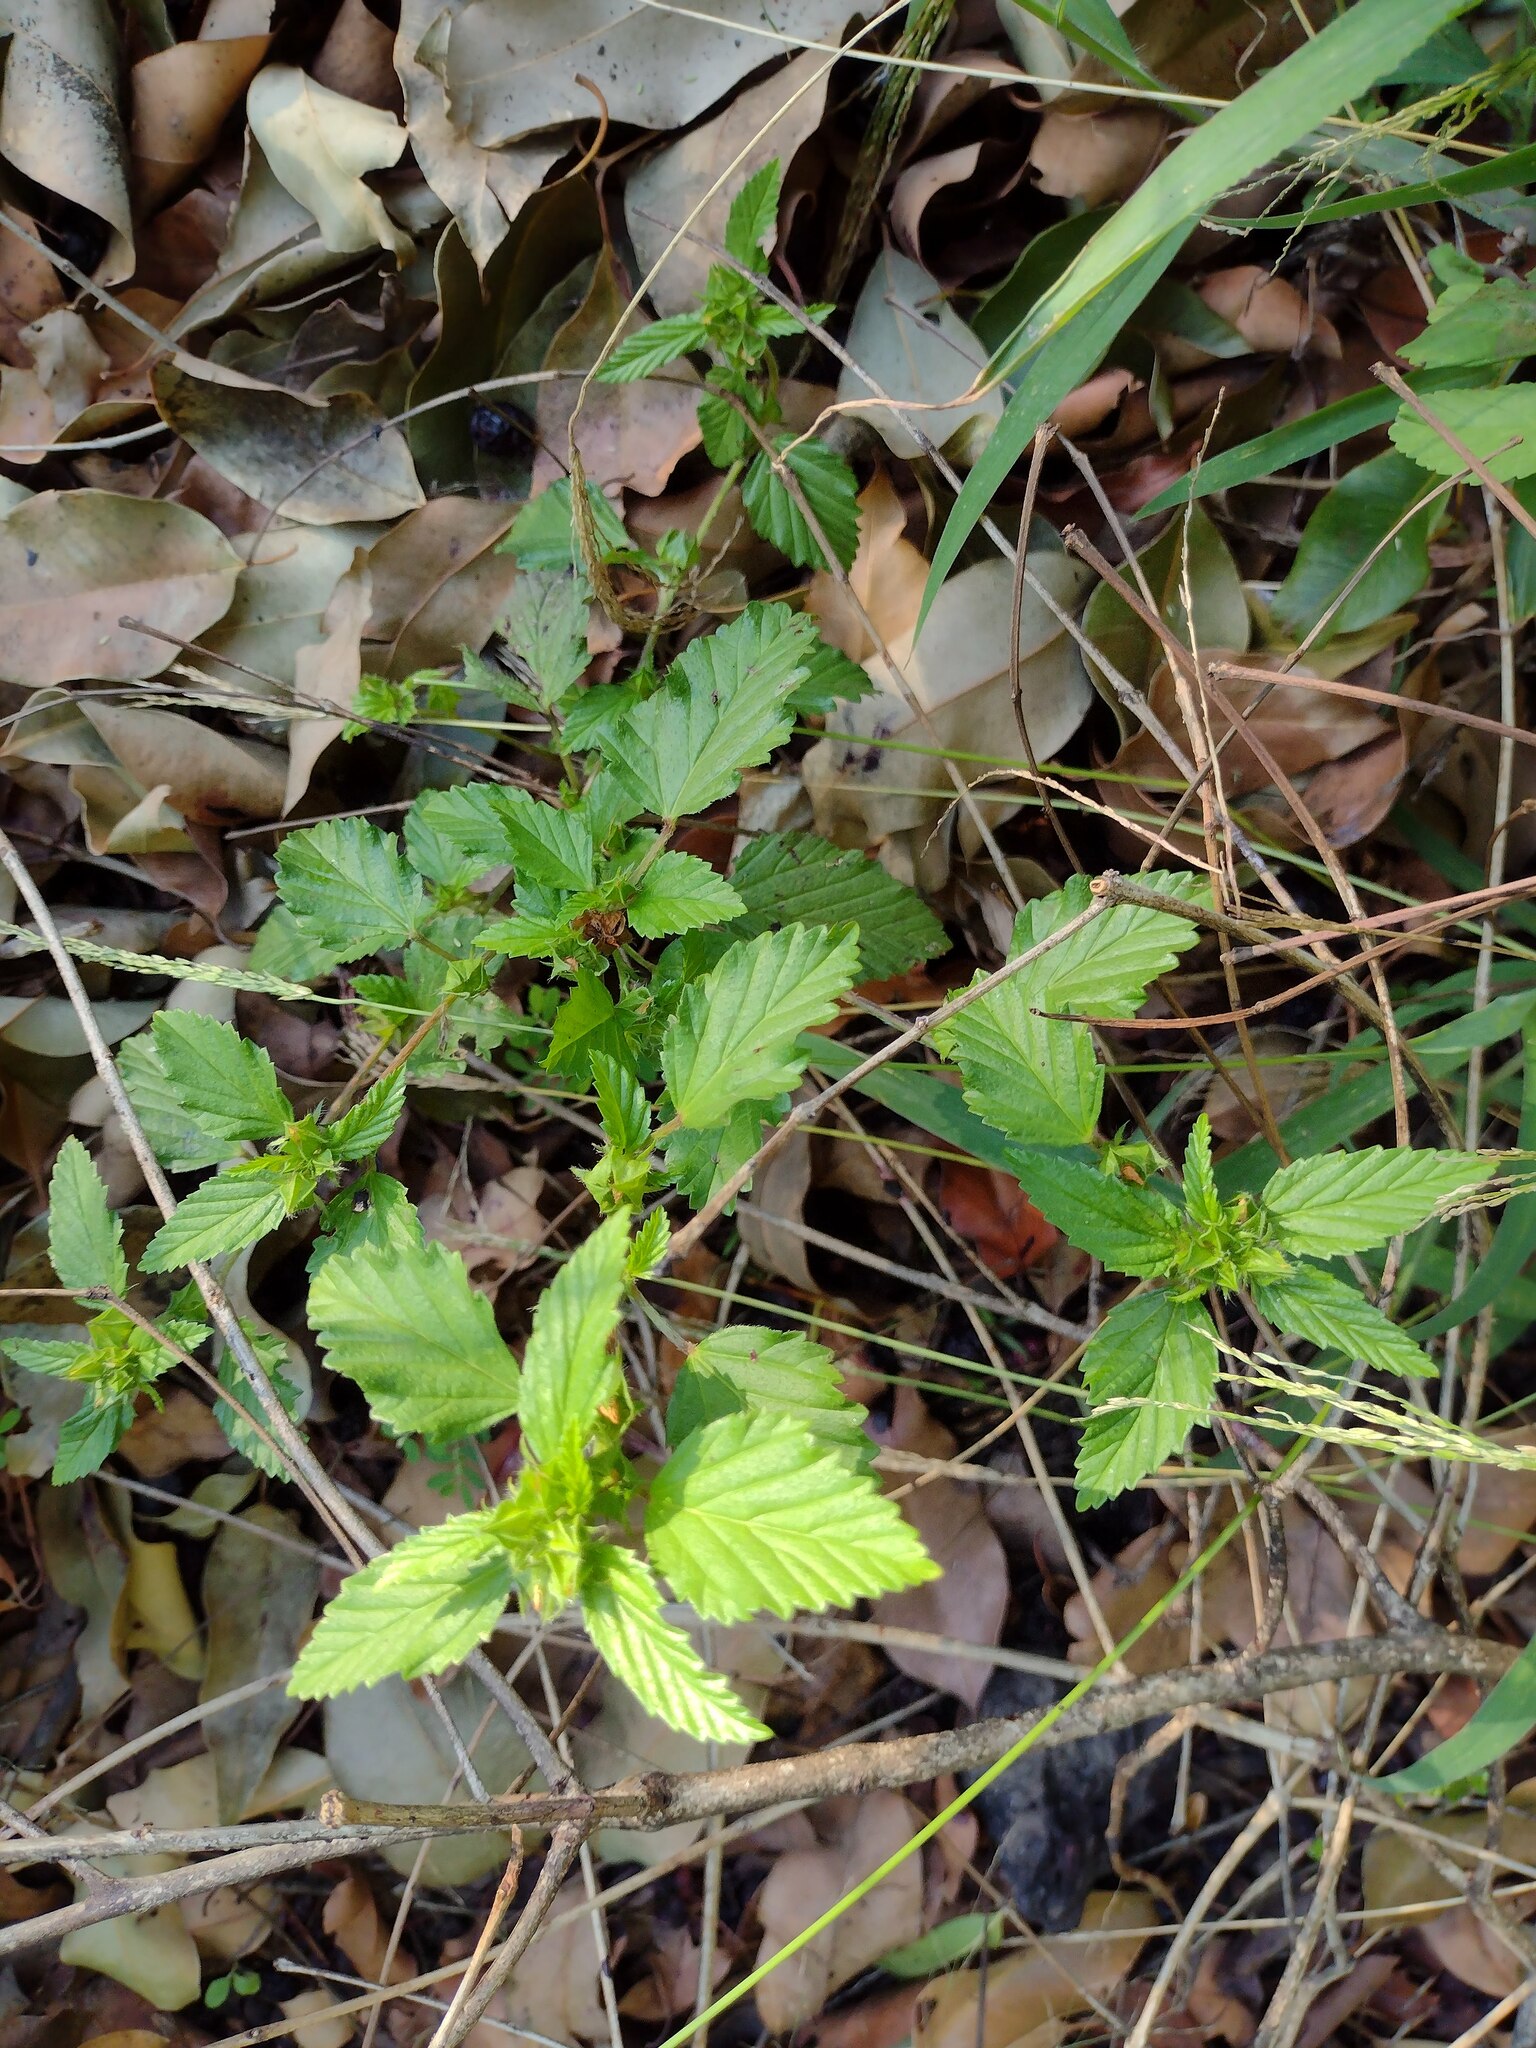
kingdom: Plantae
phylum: Tracheophyta
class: Magnoliopsida
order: Malvales
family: Malvaceae
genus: Malvastrum
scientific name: Malvastrum coromandelianum
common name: Threelobe false mallow
